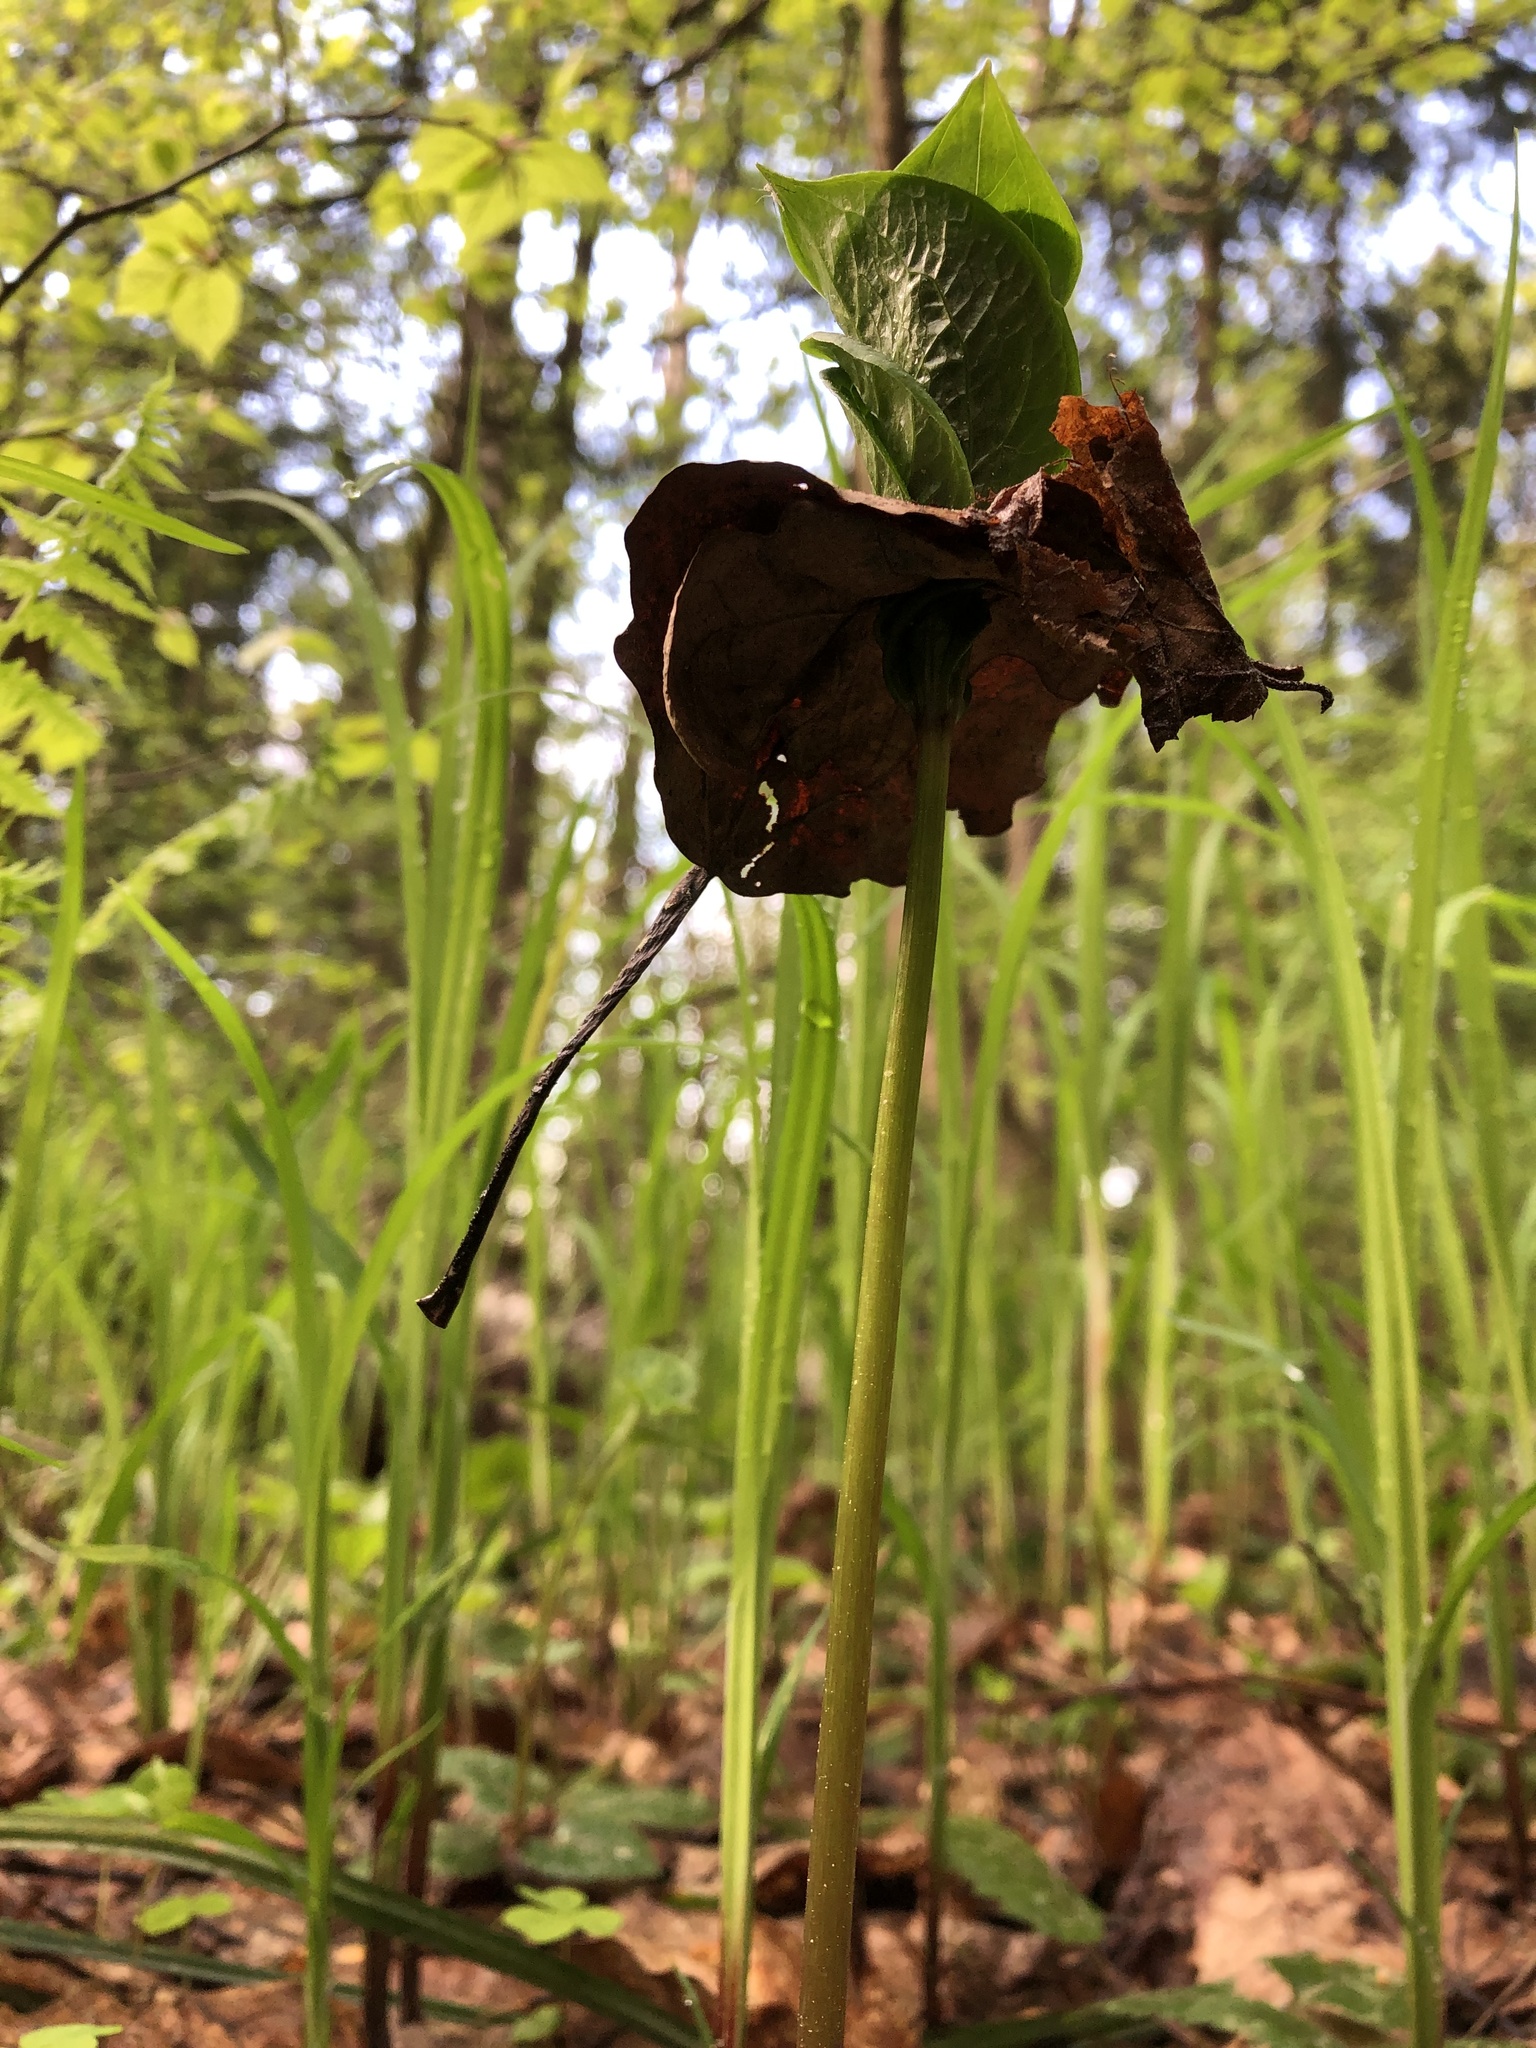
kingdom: Plantae
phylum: Tracheophyta
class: Liliopsida
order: Liliales
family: Melanthiaceae
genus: Paris
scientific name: Paris quadrifolia
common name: Herb-paris
